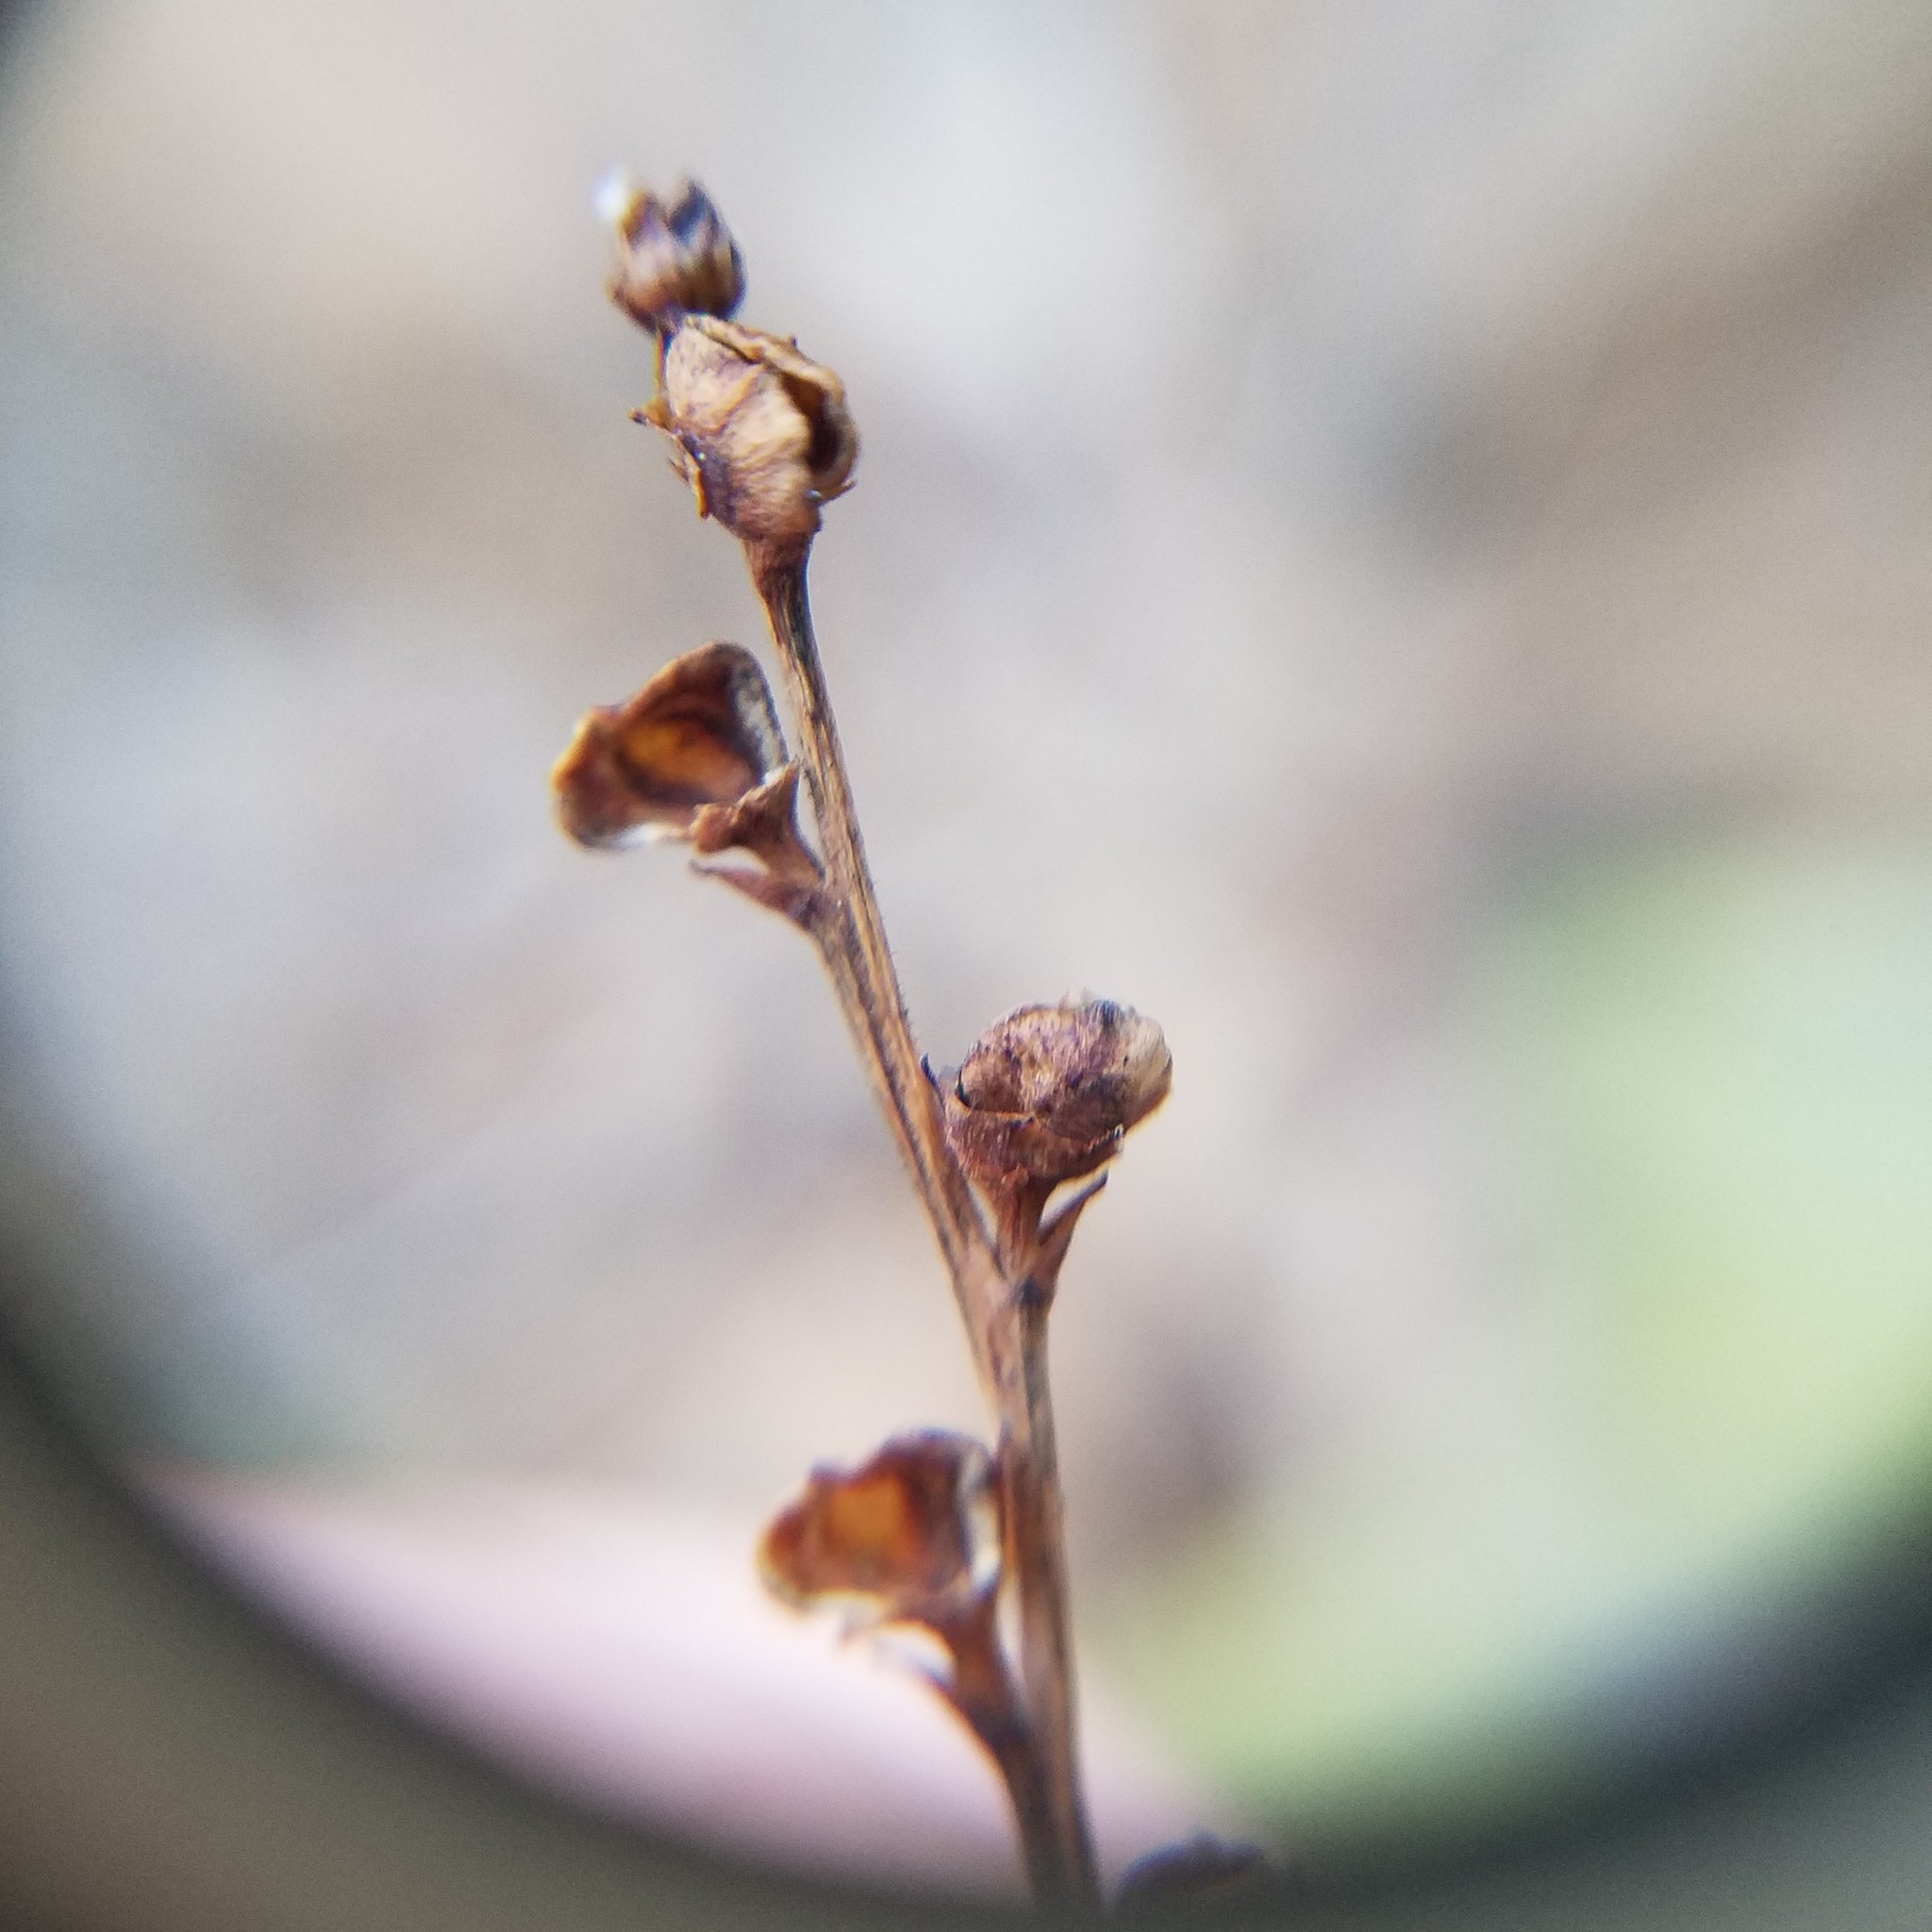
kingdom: Plantae
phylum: Tracheophyta
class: Magnoliopsida
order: Lamiales
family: Orobanchaceae
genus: Epifagus
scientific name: Epifagus virginiana
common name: Beechdrops
